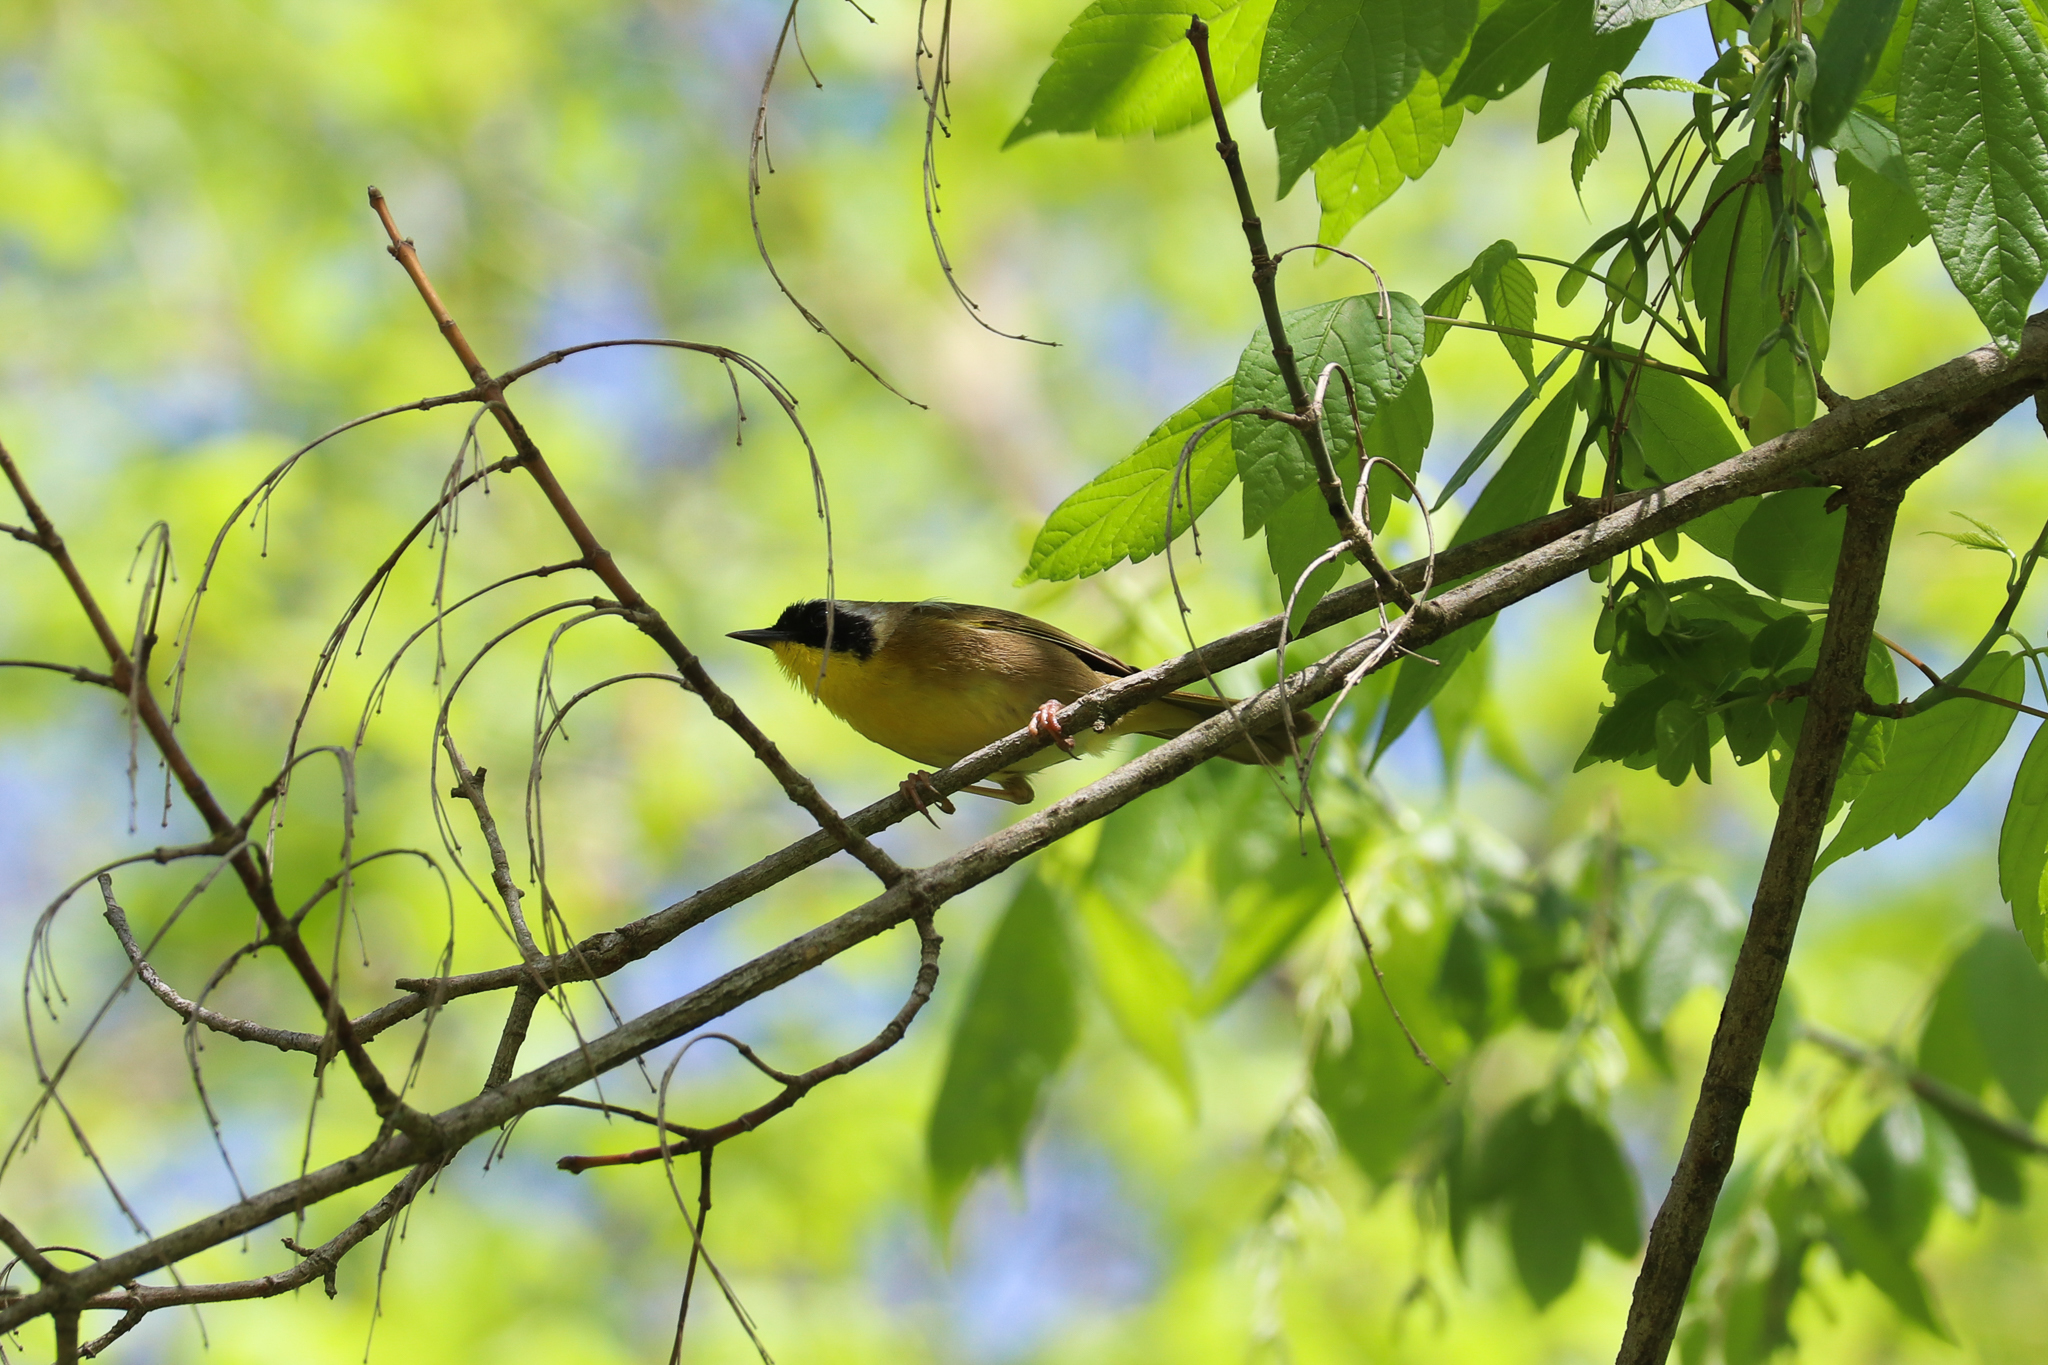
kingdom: Animalia
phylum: Chordata
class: Aves
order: Passeriformes
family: Parulidae
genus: Geothlypis
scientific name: Geothlypis trichas
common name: Common yellowthroat
